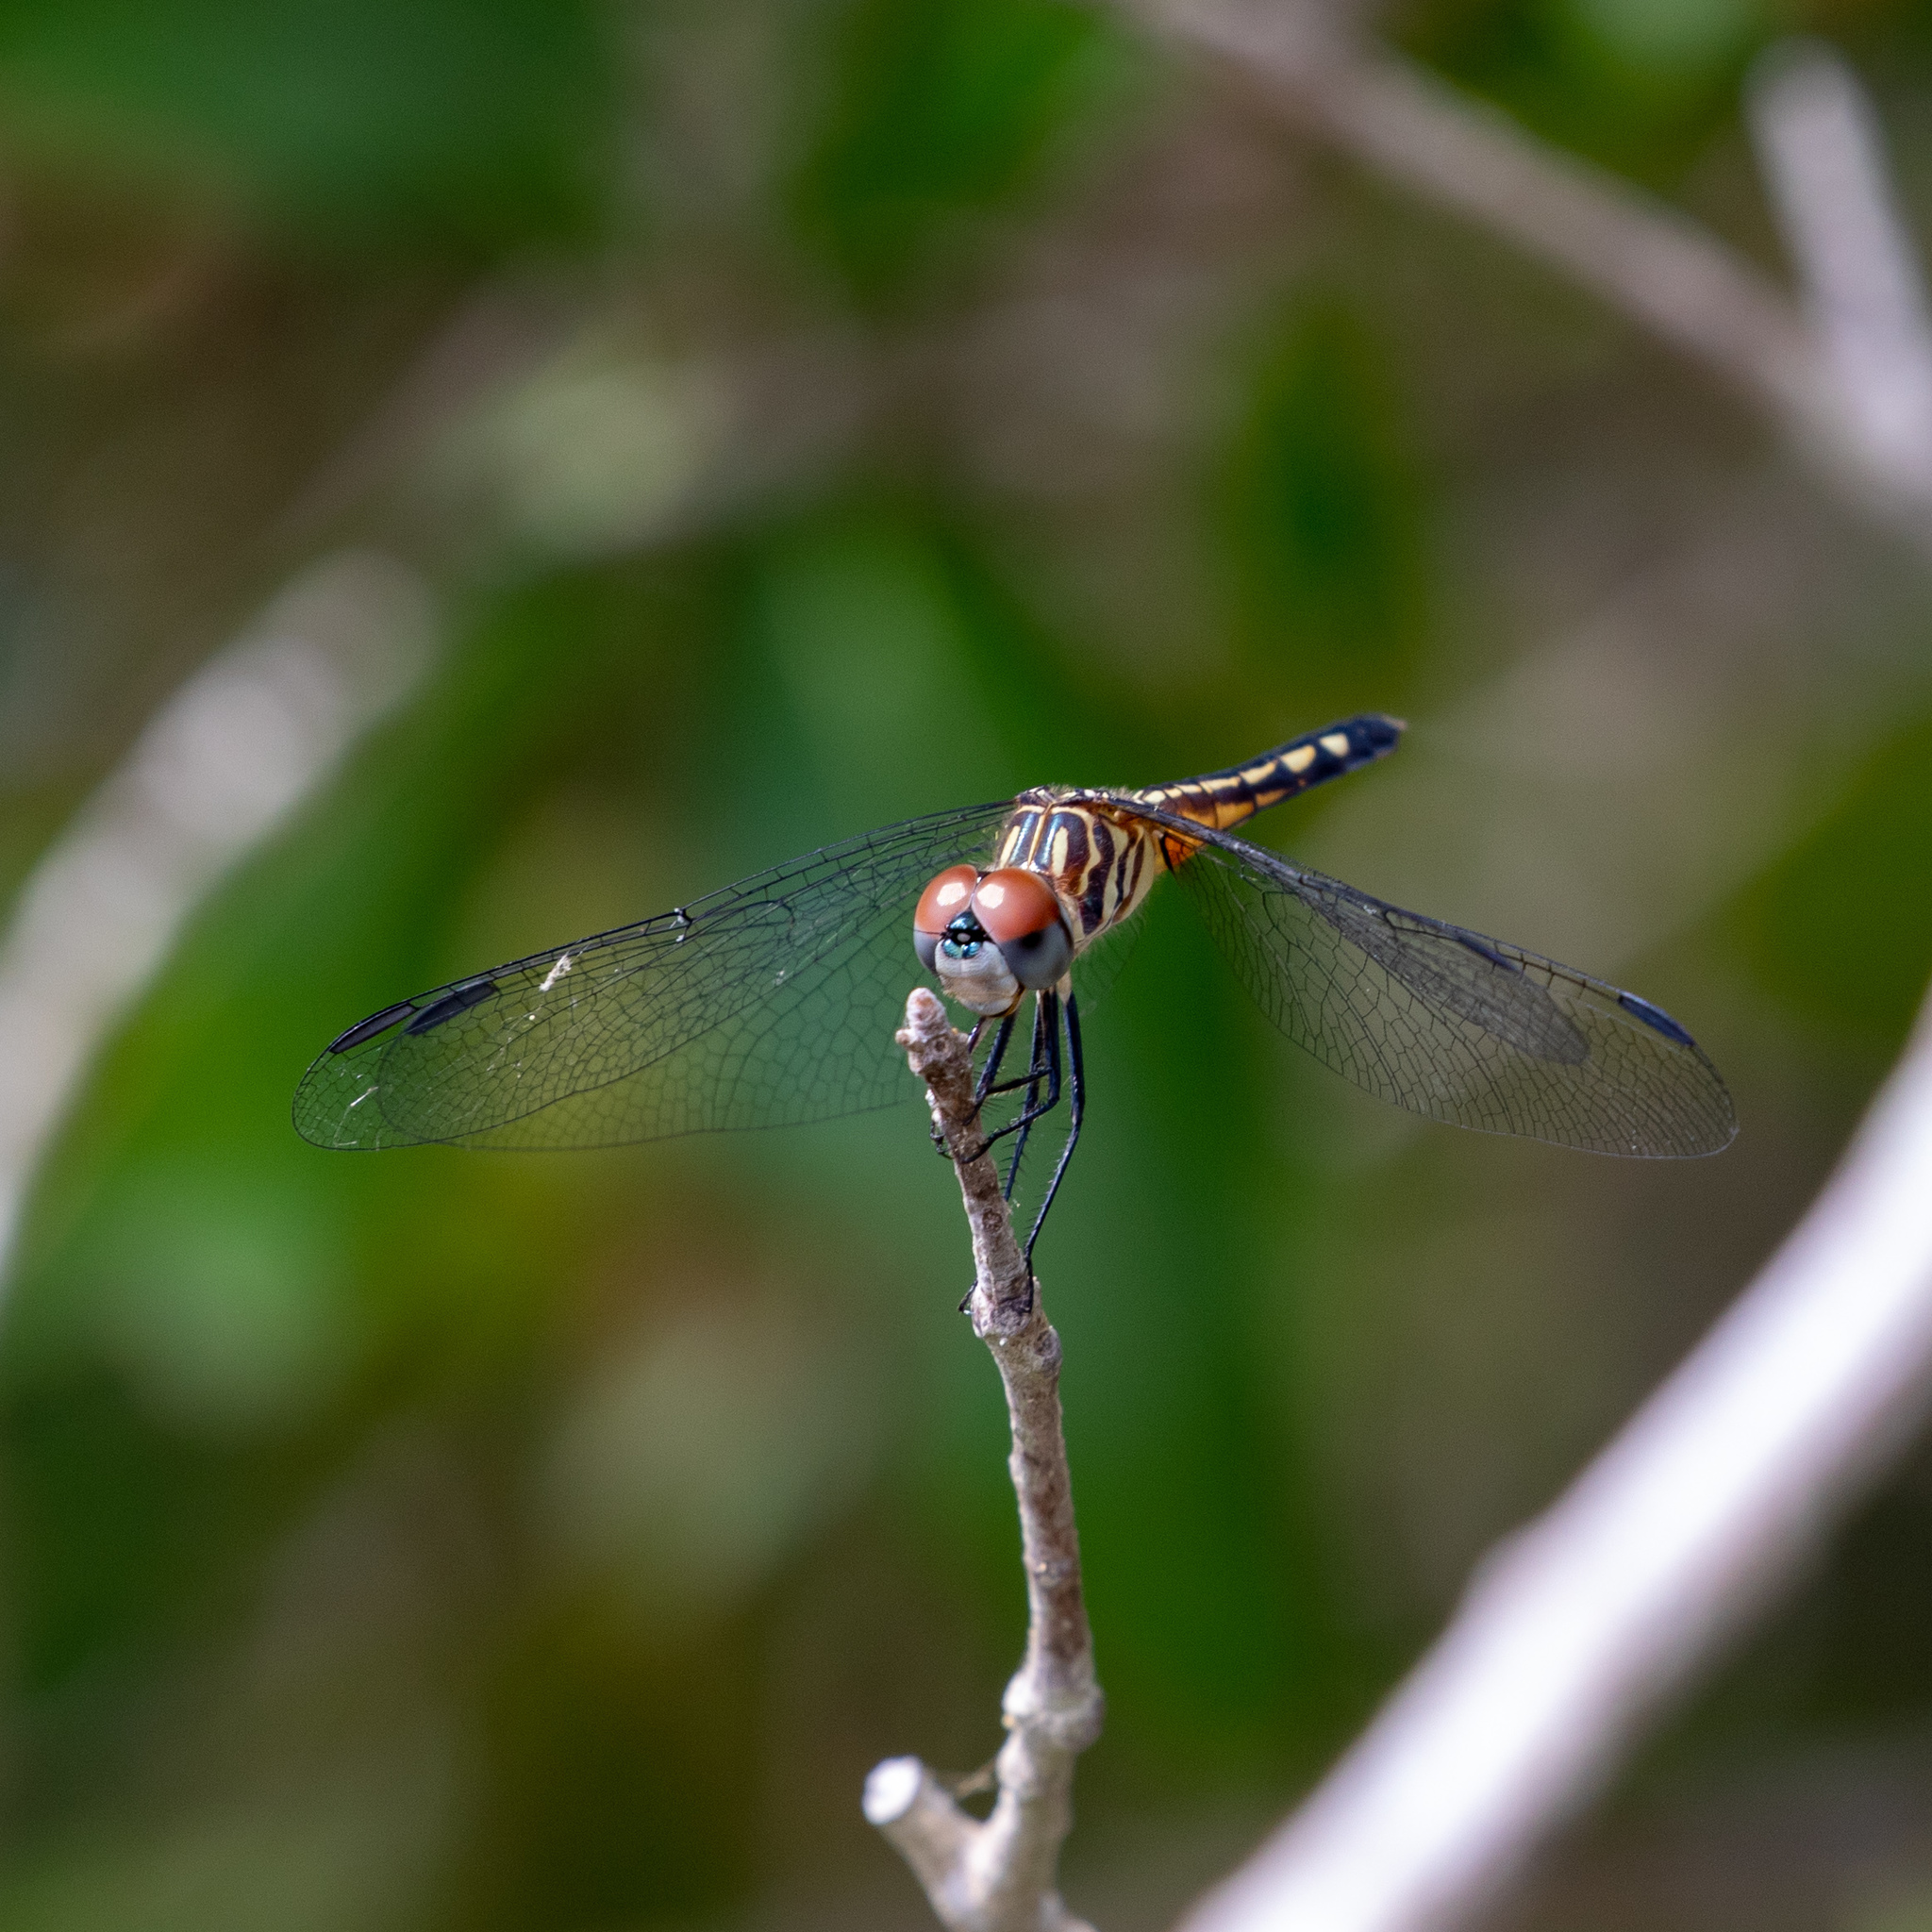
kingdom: Animalia
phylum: Arthropoda
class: Insecta
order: Odonata
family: Libellulidae
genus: Pachydiplax
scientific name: Pachydiplax longipennis
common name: Blue dasher
